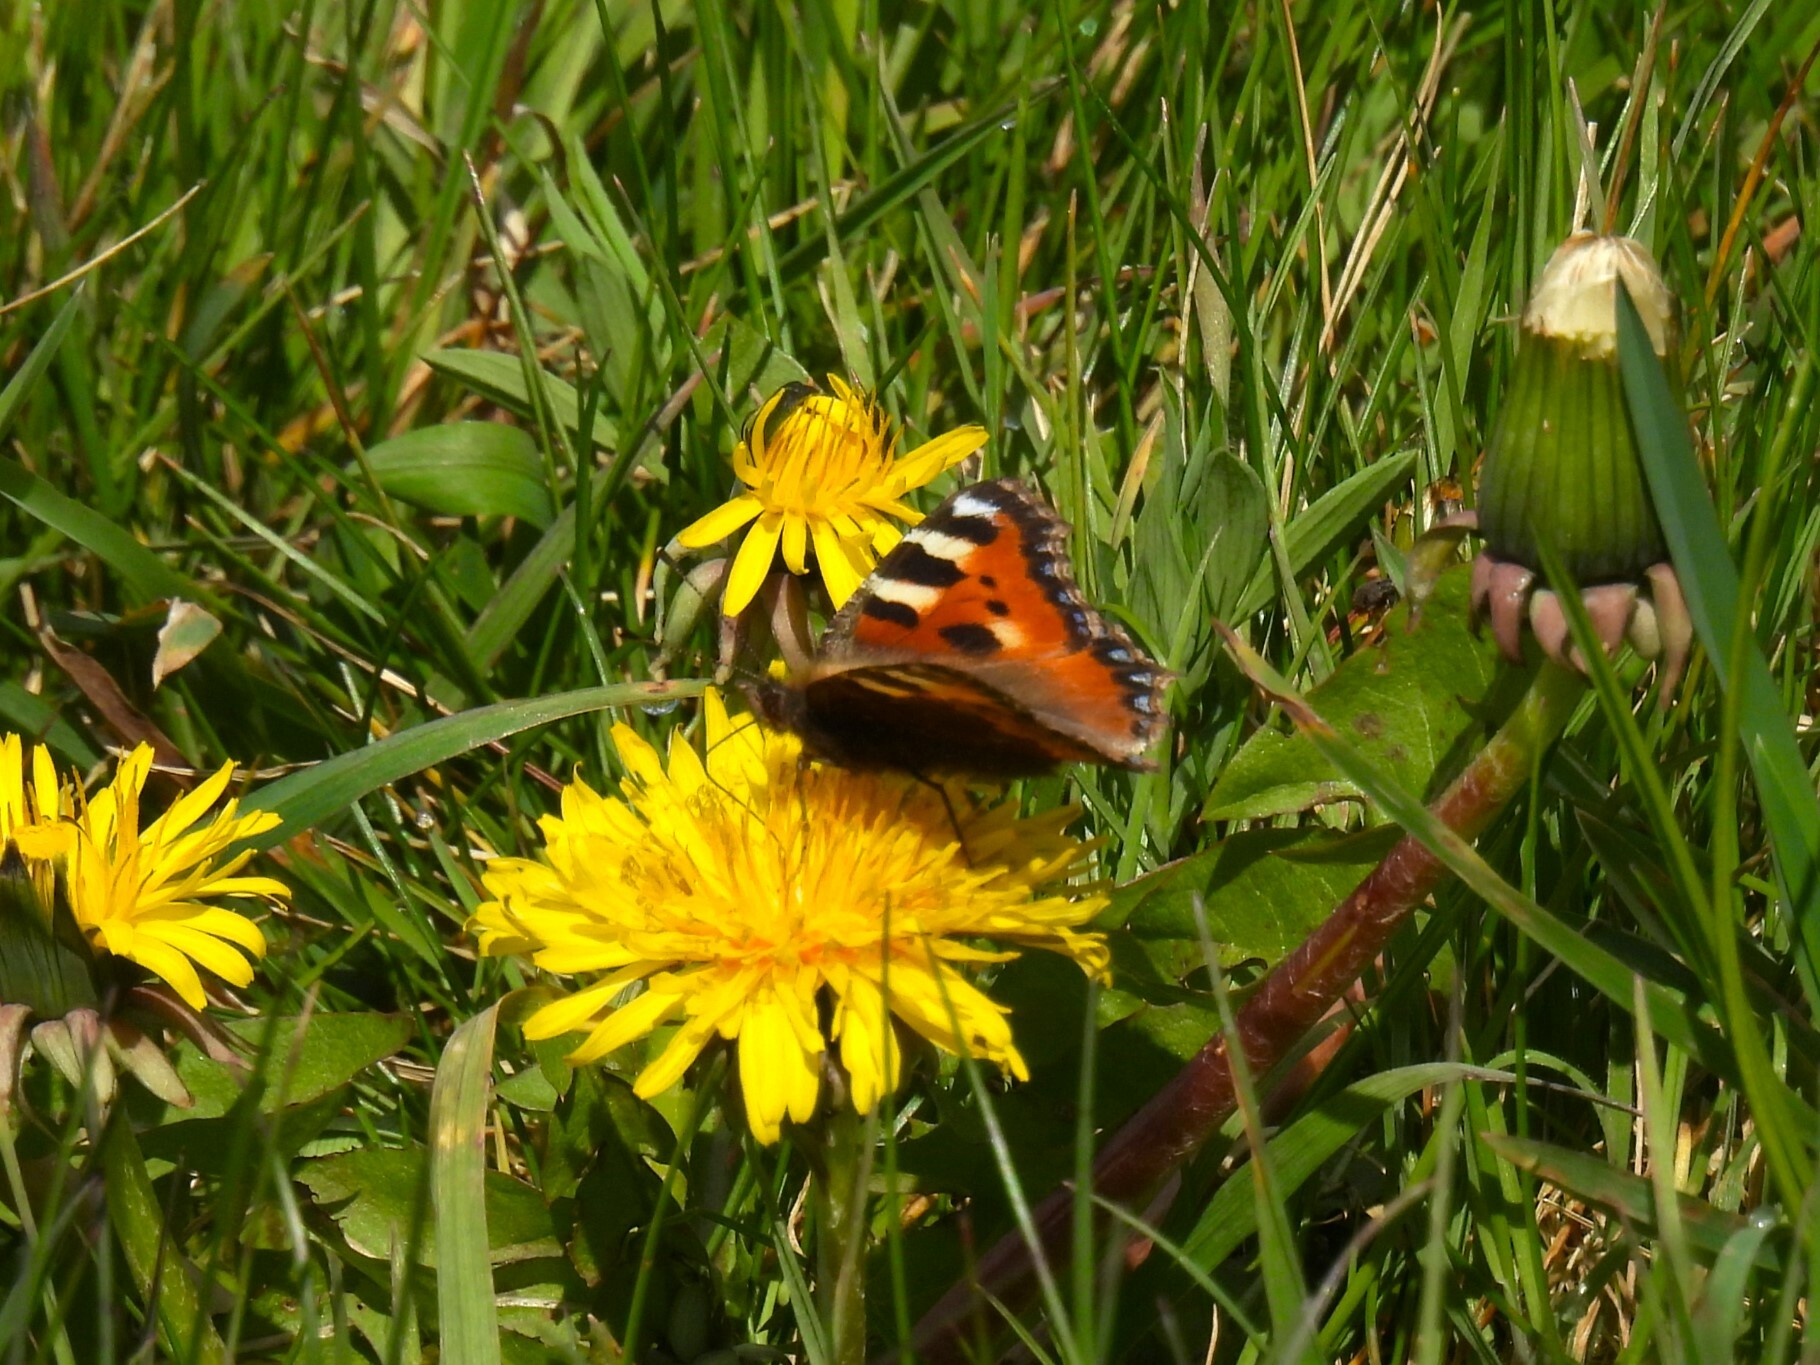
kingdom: Animalia
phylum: Arthropoda
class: Insecta
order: Lepidoptera
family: Nymphalidae
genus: Aglais
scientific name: Aglais urticae
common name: Small tortoiseshell
